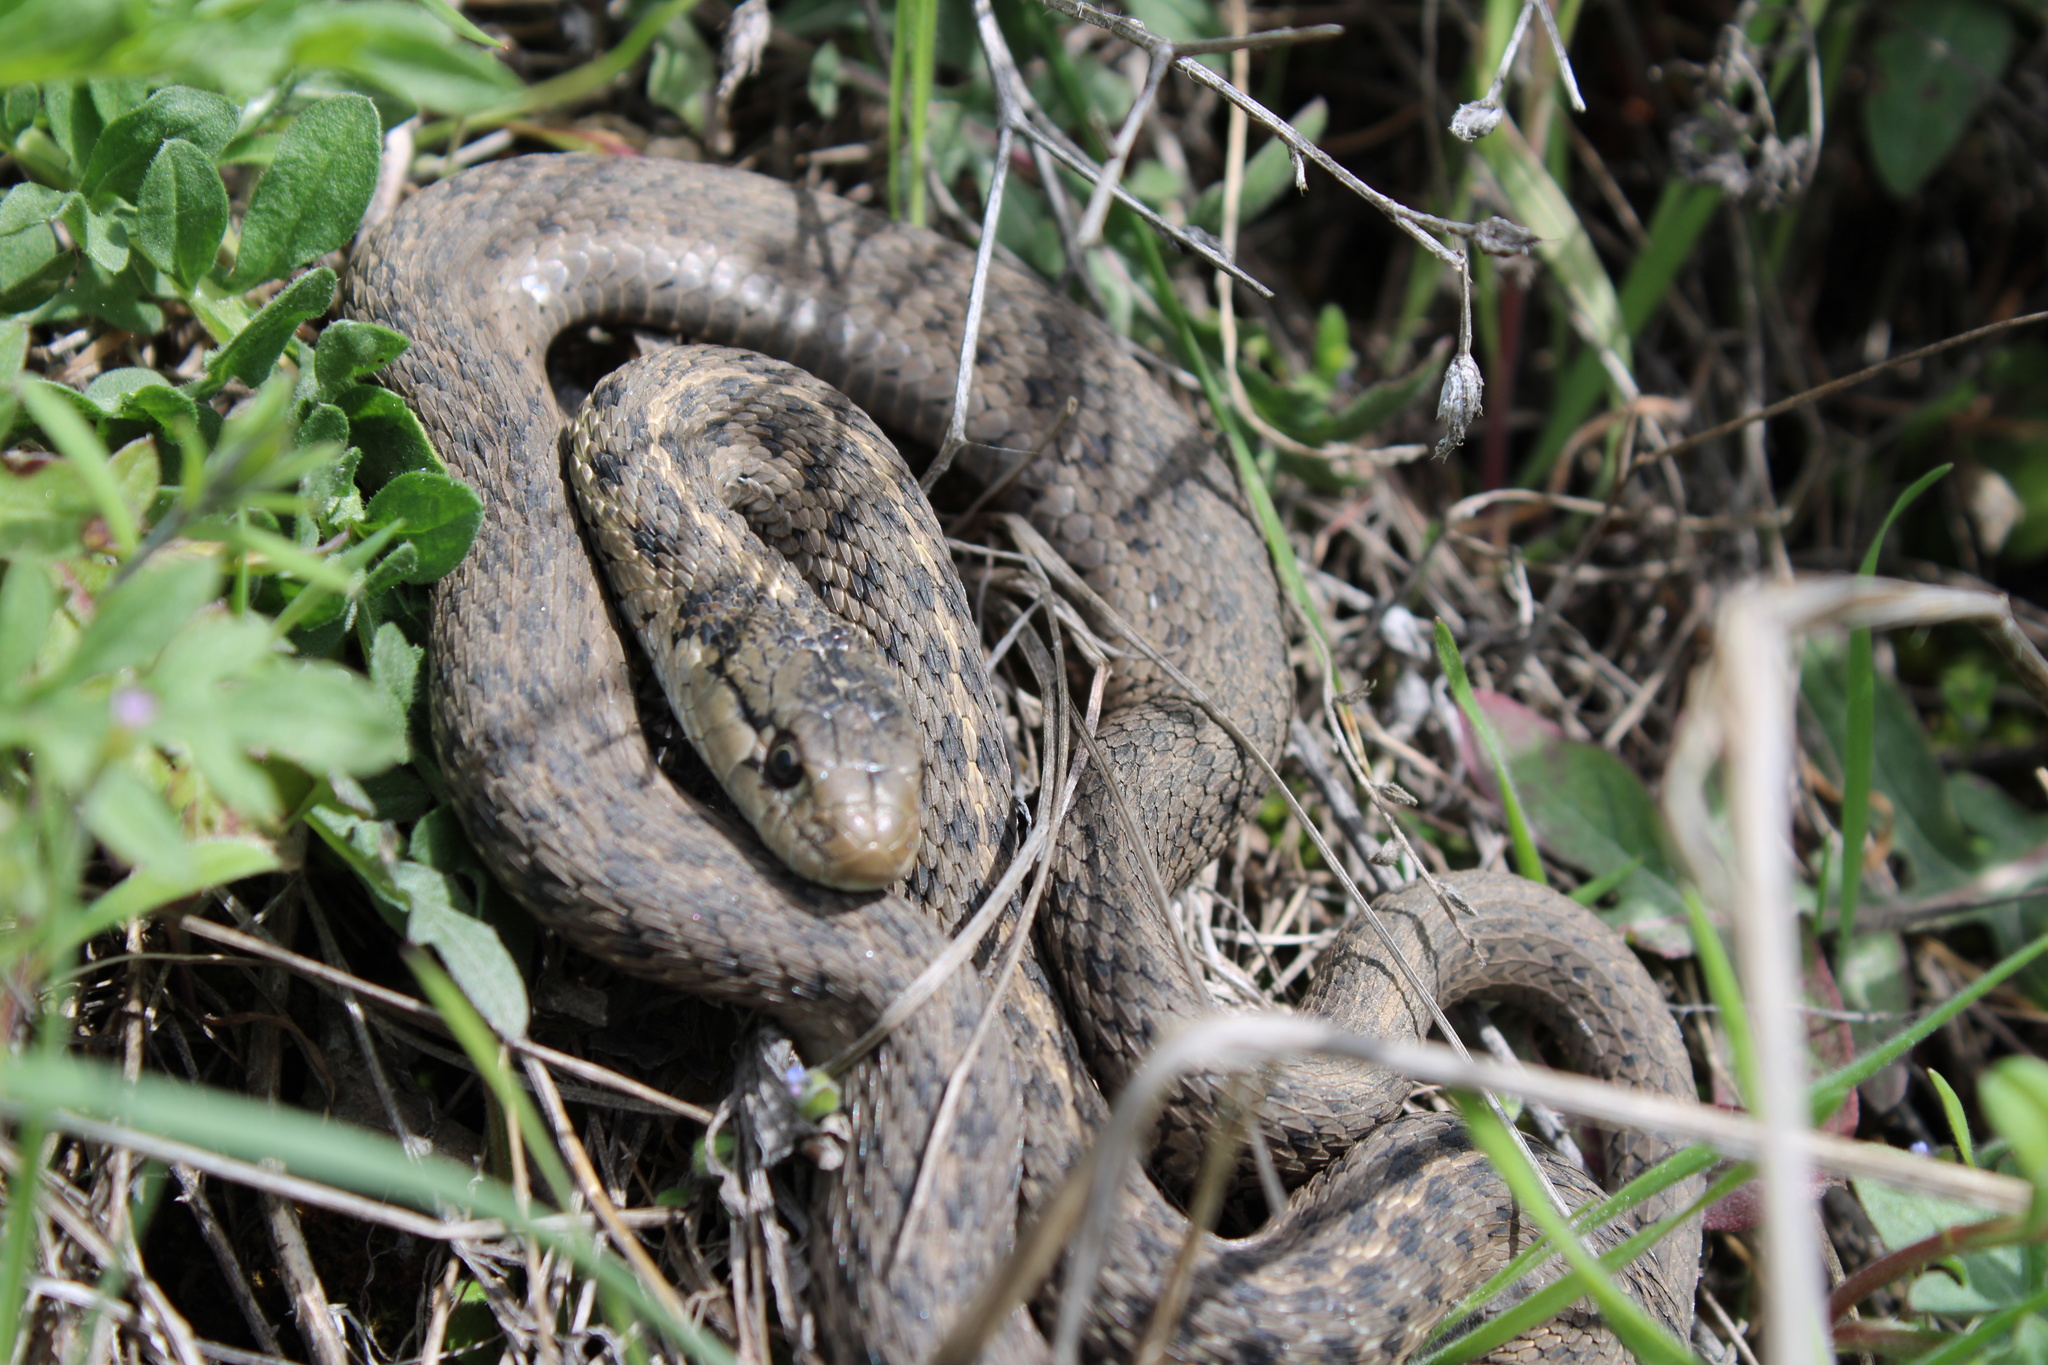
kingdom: Animalia
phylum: Chordata
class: Squamata
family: Colubridae
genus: Thamnophis
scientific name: Thamnophis elegans
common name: Western terrestrial garter snake
